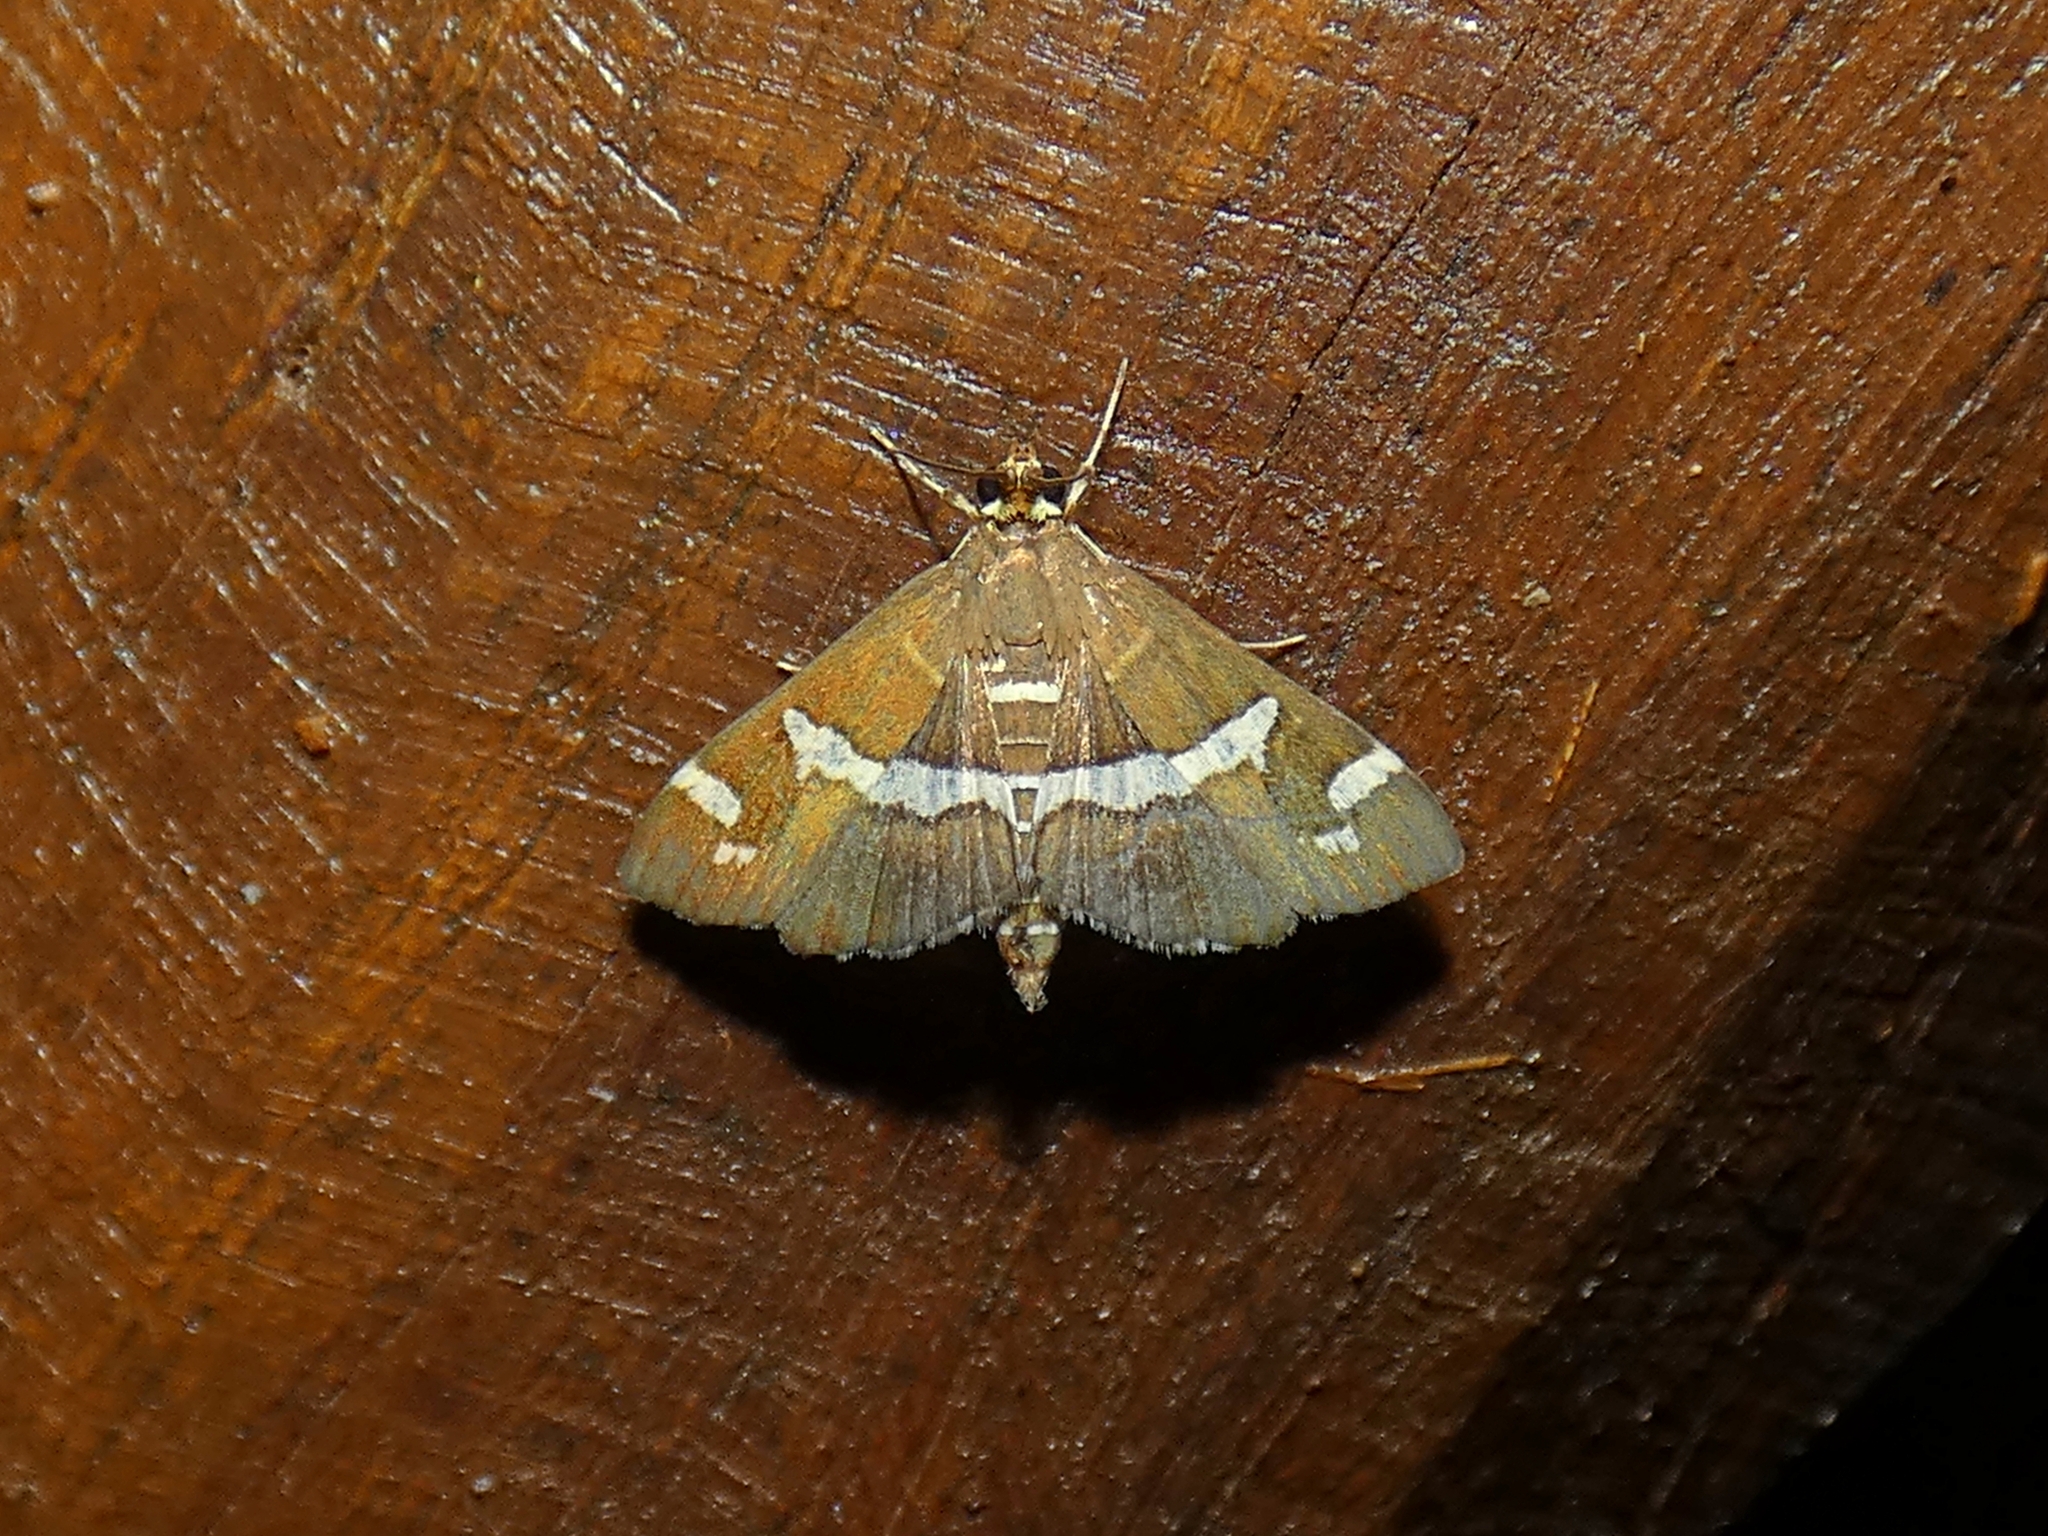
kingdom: Animalia
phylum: Arthropoda
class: Insecta
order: Lepidoptera
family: Crambidae
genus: Spoladea
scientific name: Spoladea recurvalis
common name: Beet webworm moth
